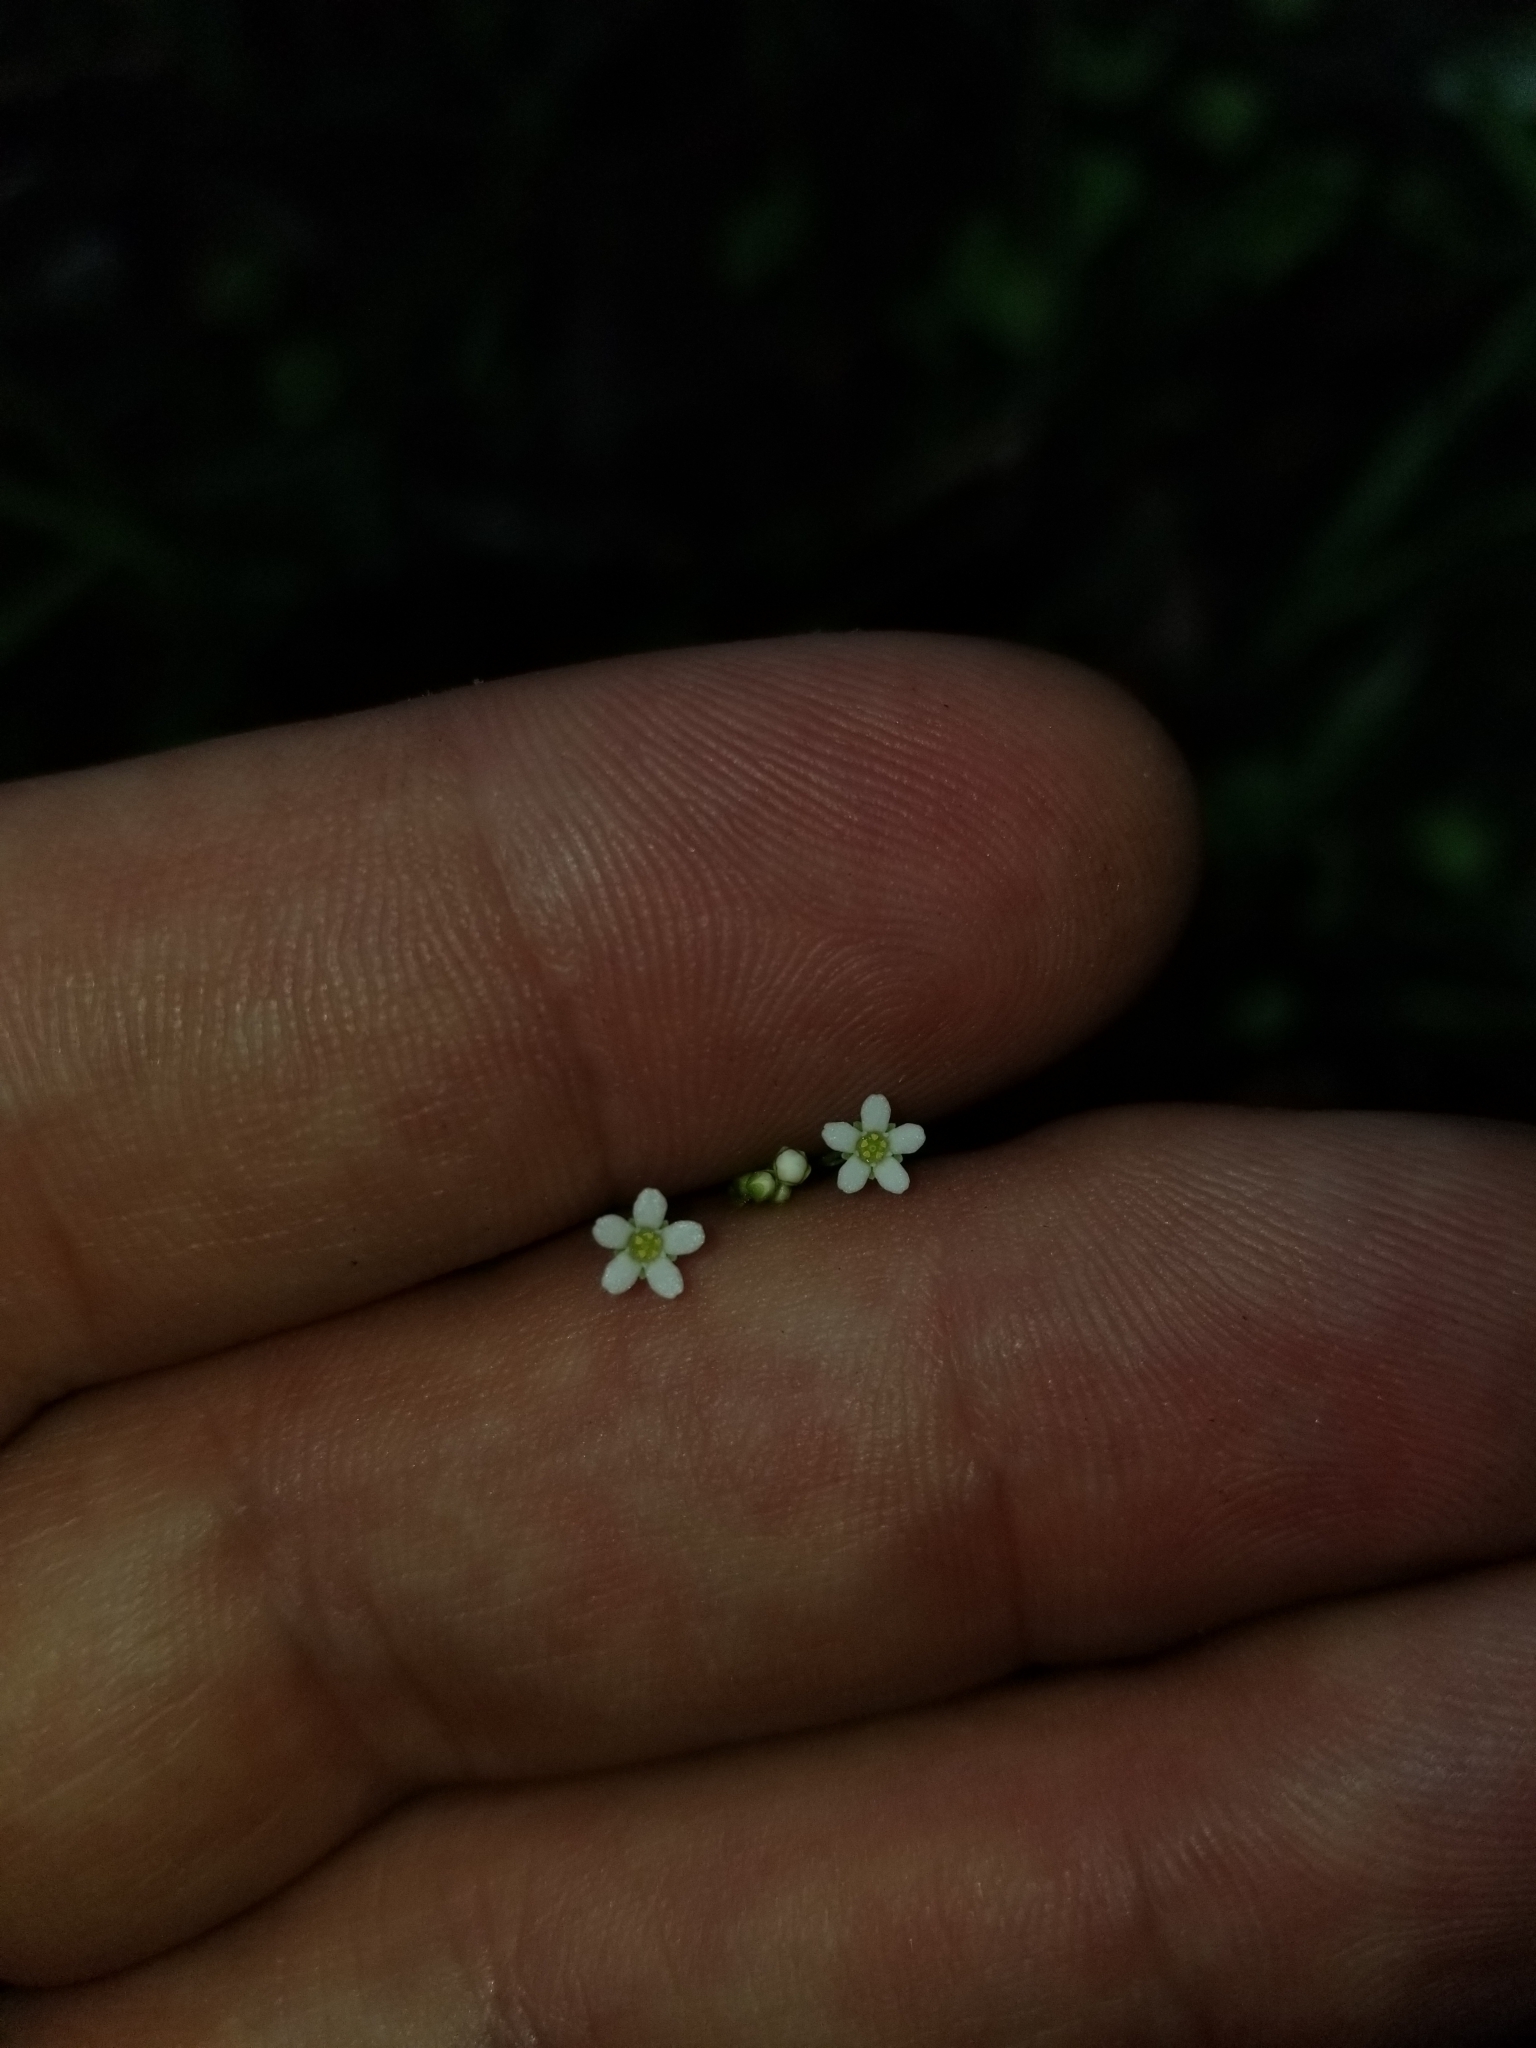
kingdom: Plantae
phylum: Tracheophyta
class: Magnoliopsida
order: Ericales
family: Primulaceae
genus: Samolus
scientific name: Samolus parviflorus
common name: False water pimpernel
